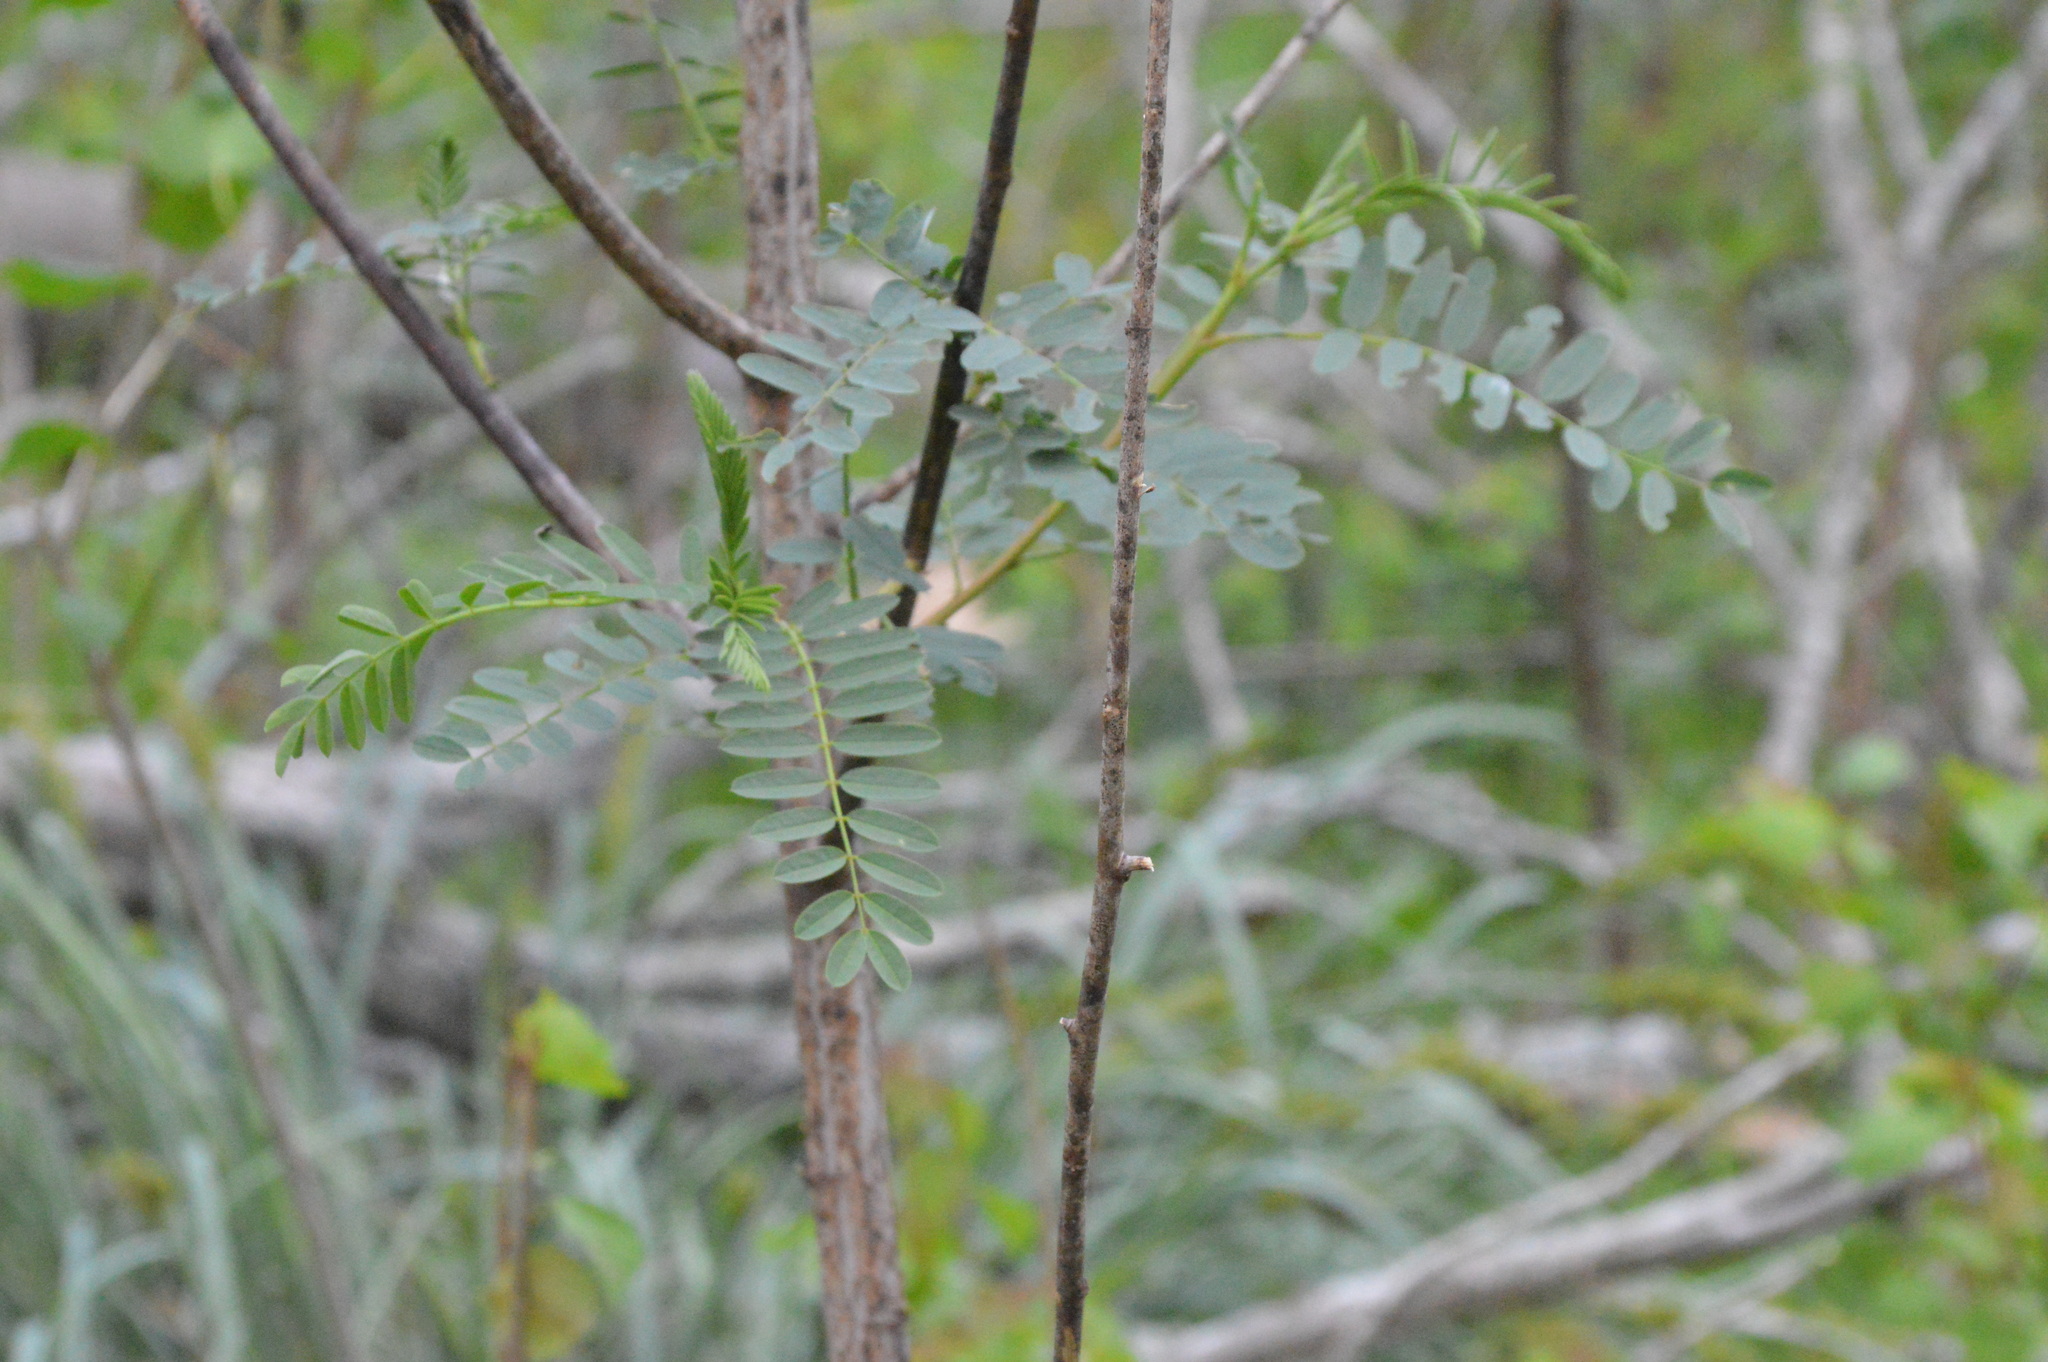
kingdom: Plantae
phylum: Tracheophyta
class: Magnoliopsida
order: Fabales
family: Fabaceae
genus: Sesbania
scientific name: Sesbania drummondii
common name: Poison-bean
